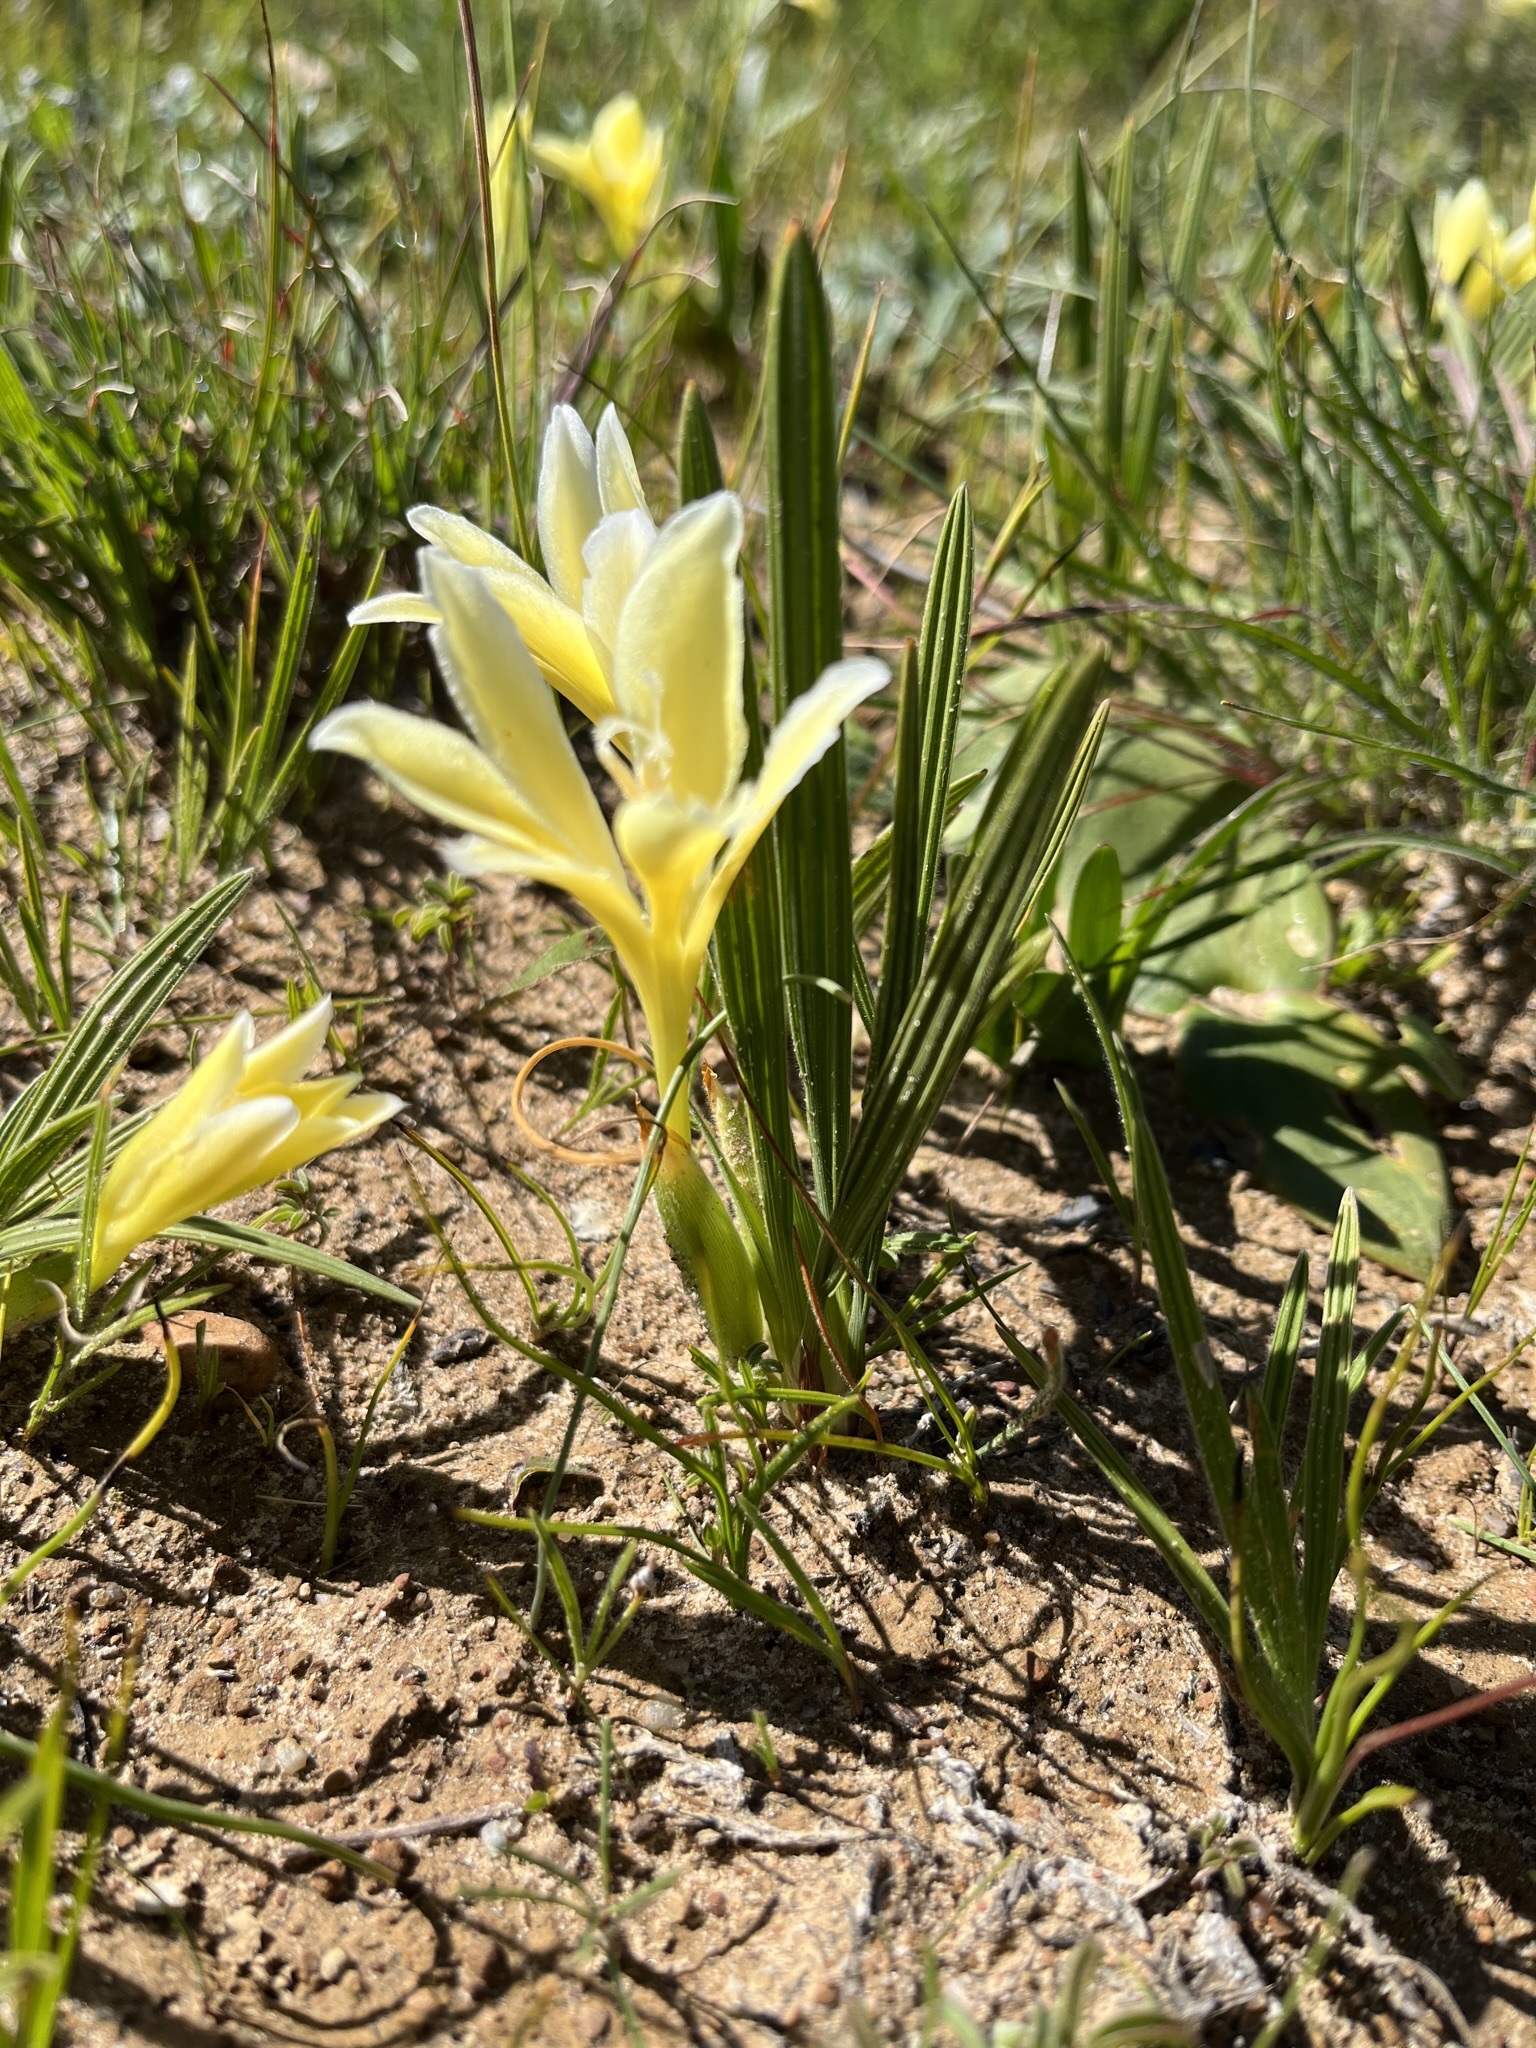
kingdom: Plantae
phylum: Tracheophyta
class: Liliopsida
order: Asparagales
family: Iridaceae
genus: Babiana
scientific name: Babiana vanzijliae
